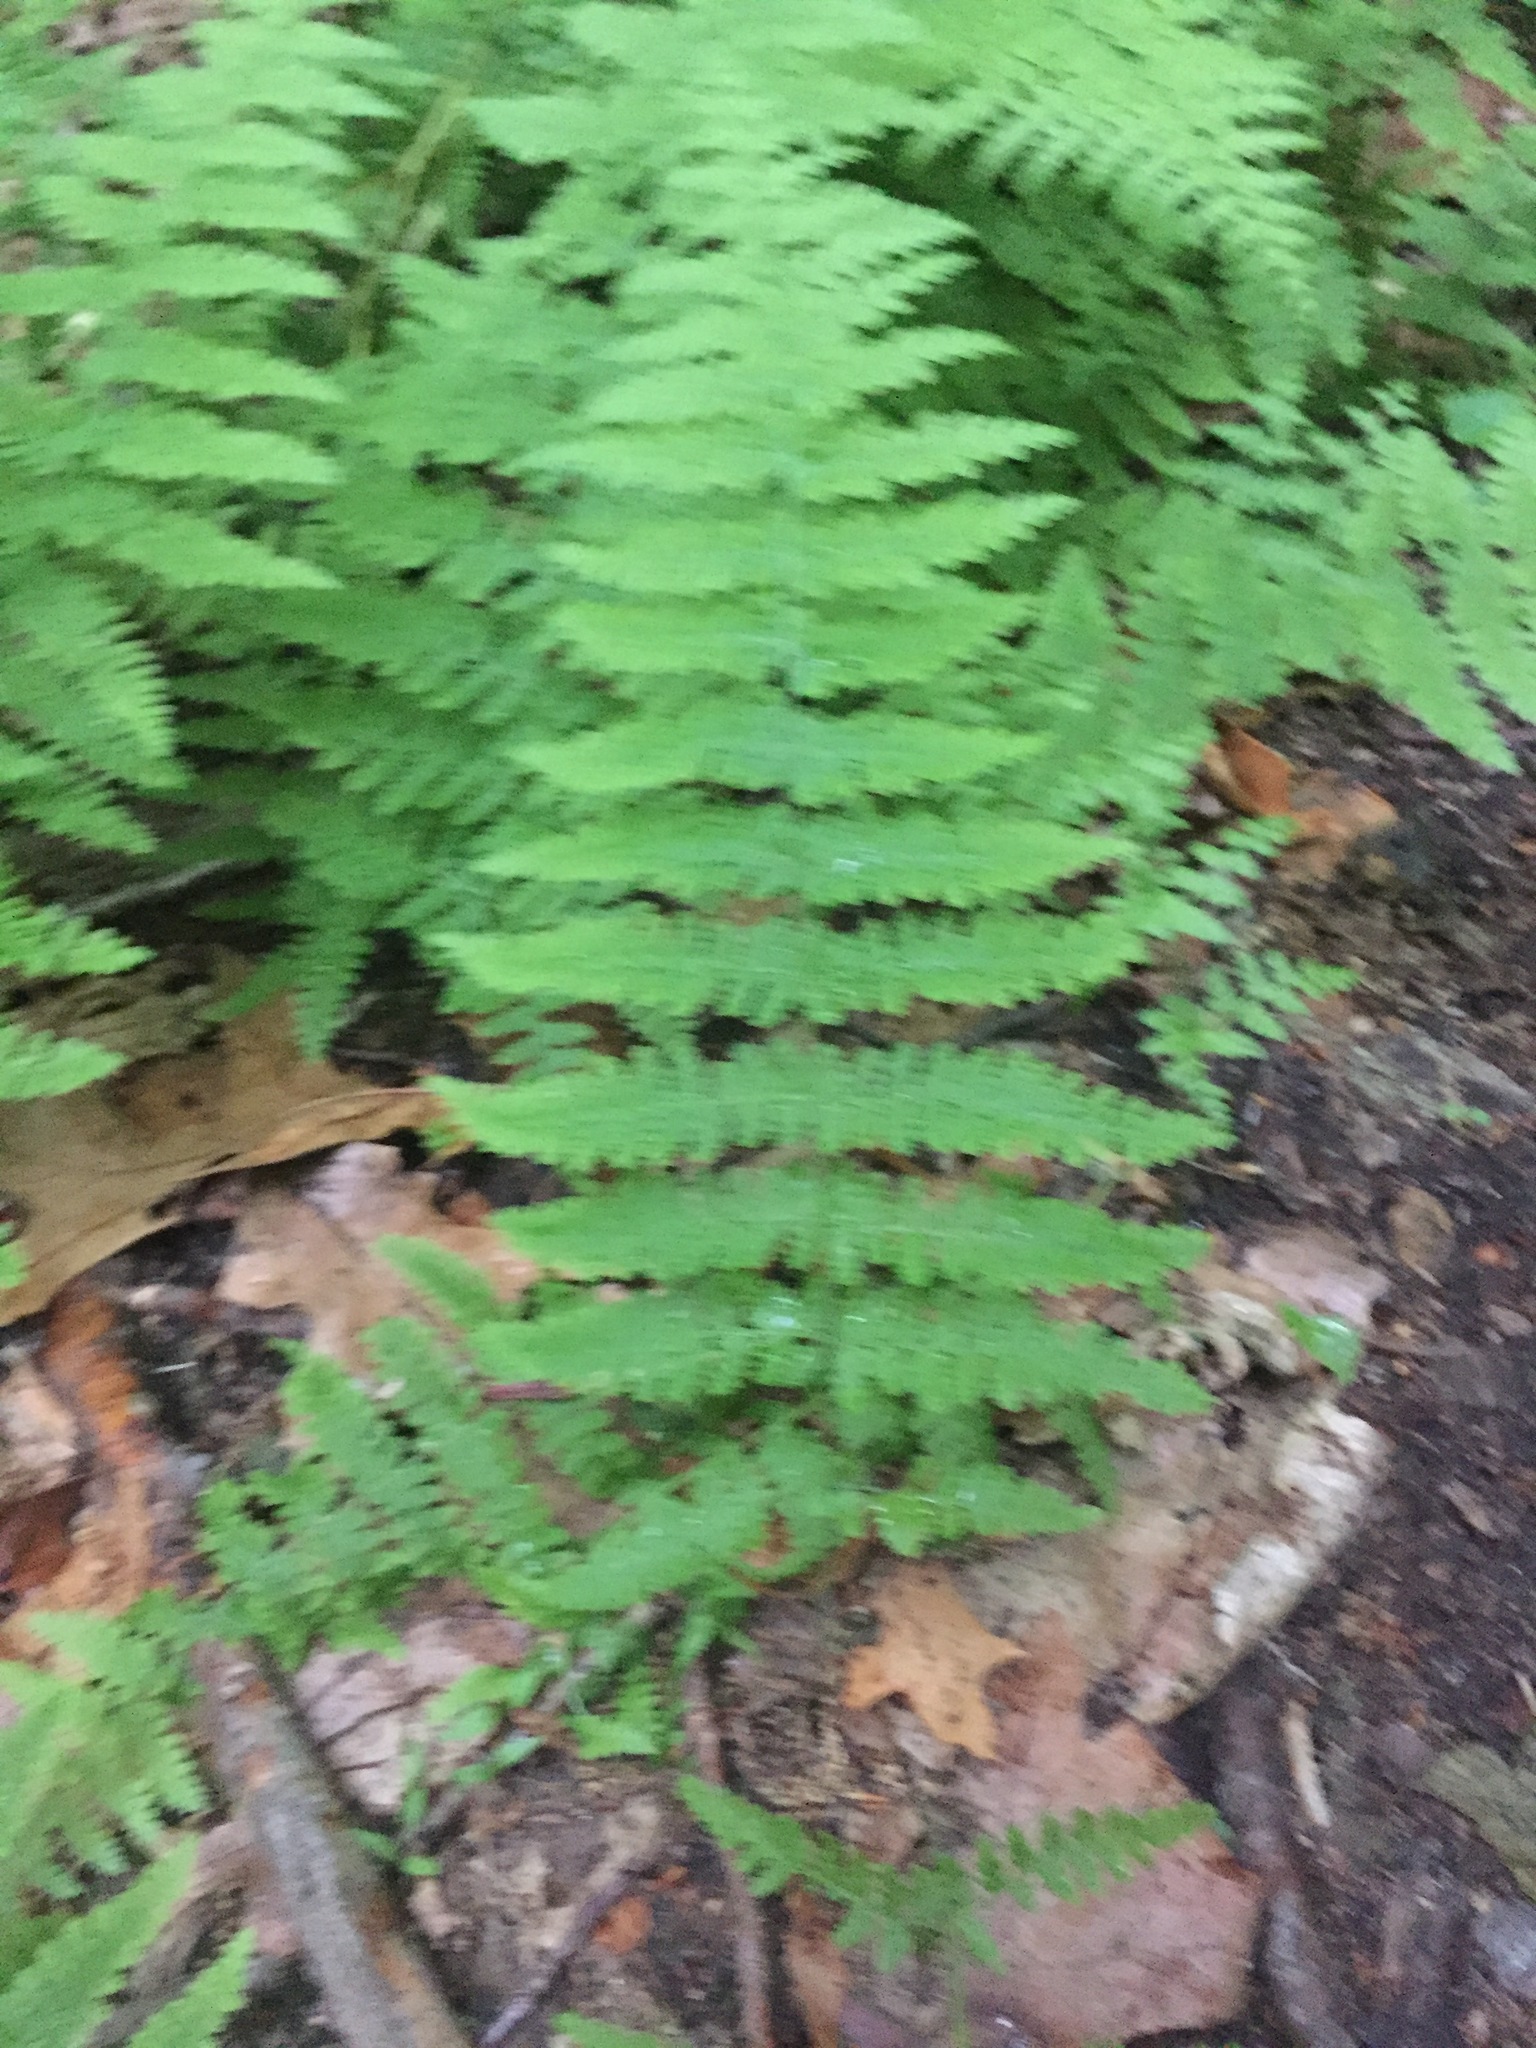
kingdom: Plantae
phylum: Tracheophyta
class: Polypodiopsida
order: Polypodiales
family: Dennstaedtiaceae
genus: Sitobolium
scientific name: Sitobolium punctilobum
